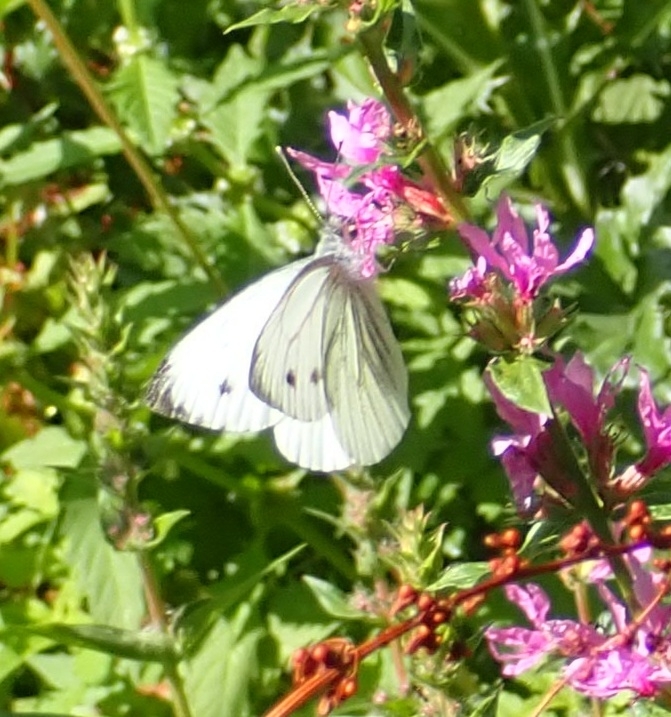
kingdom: Animalia
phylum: Arthropoda
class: Insecta
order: Lepidoptera
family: Pieridae
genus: Pieris
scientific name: Pieris napi
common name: Green-veined white
